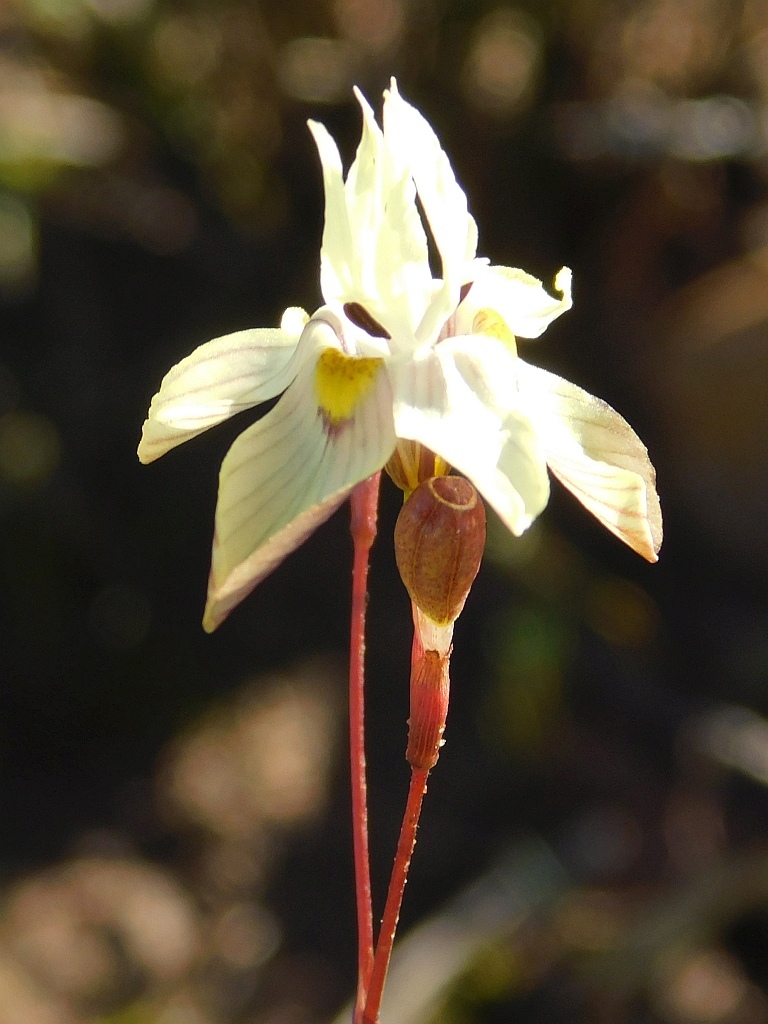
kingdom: Plantae
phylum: Tracheophyta
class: Liliopsida
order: Asparagales
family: Iridaceae
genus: Moraea
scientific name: Moraea gawleri
